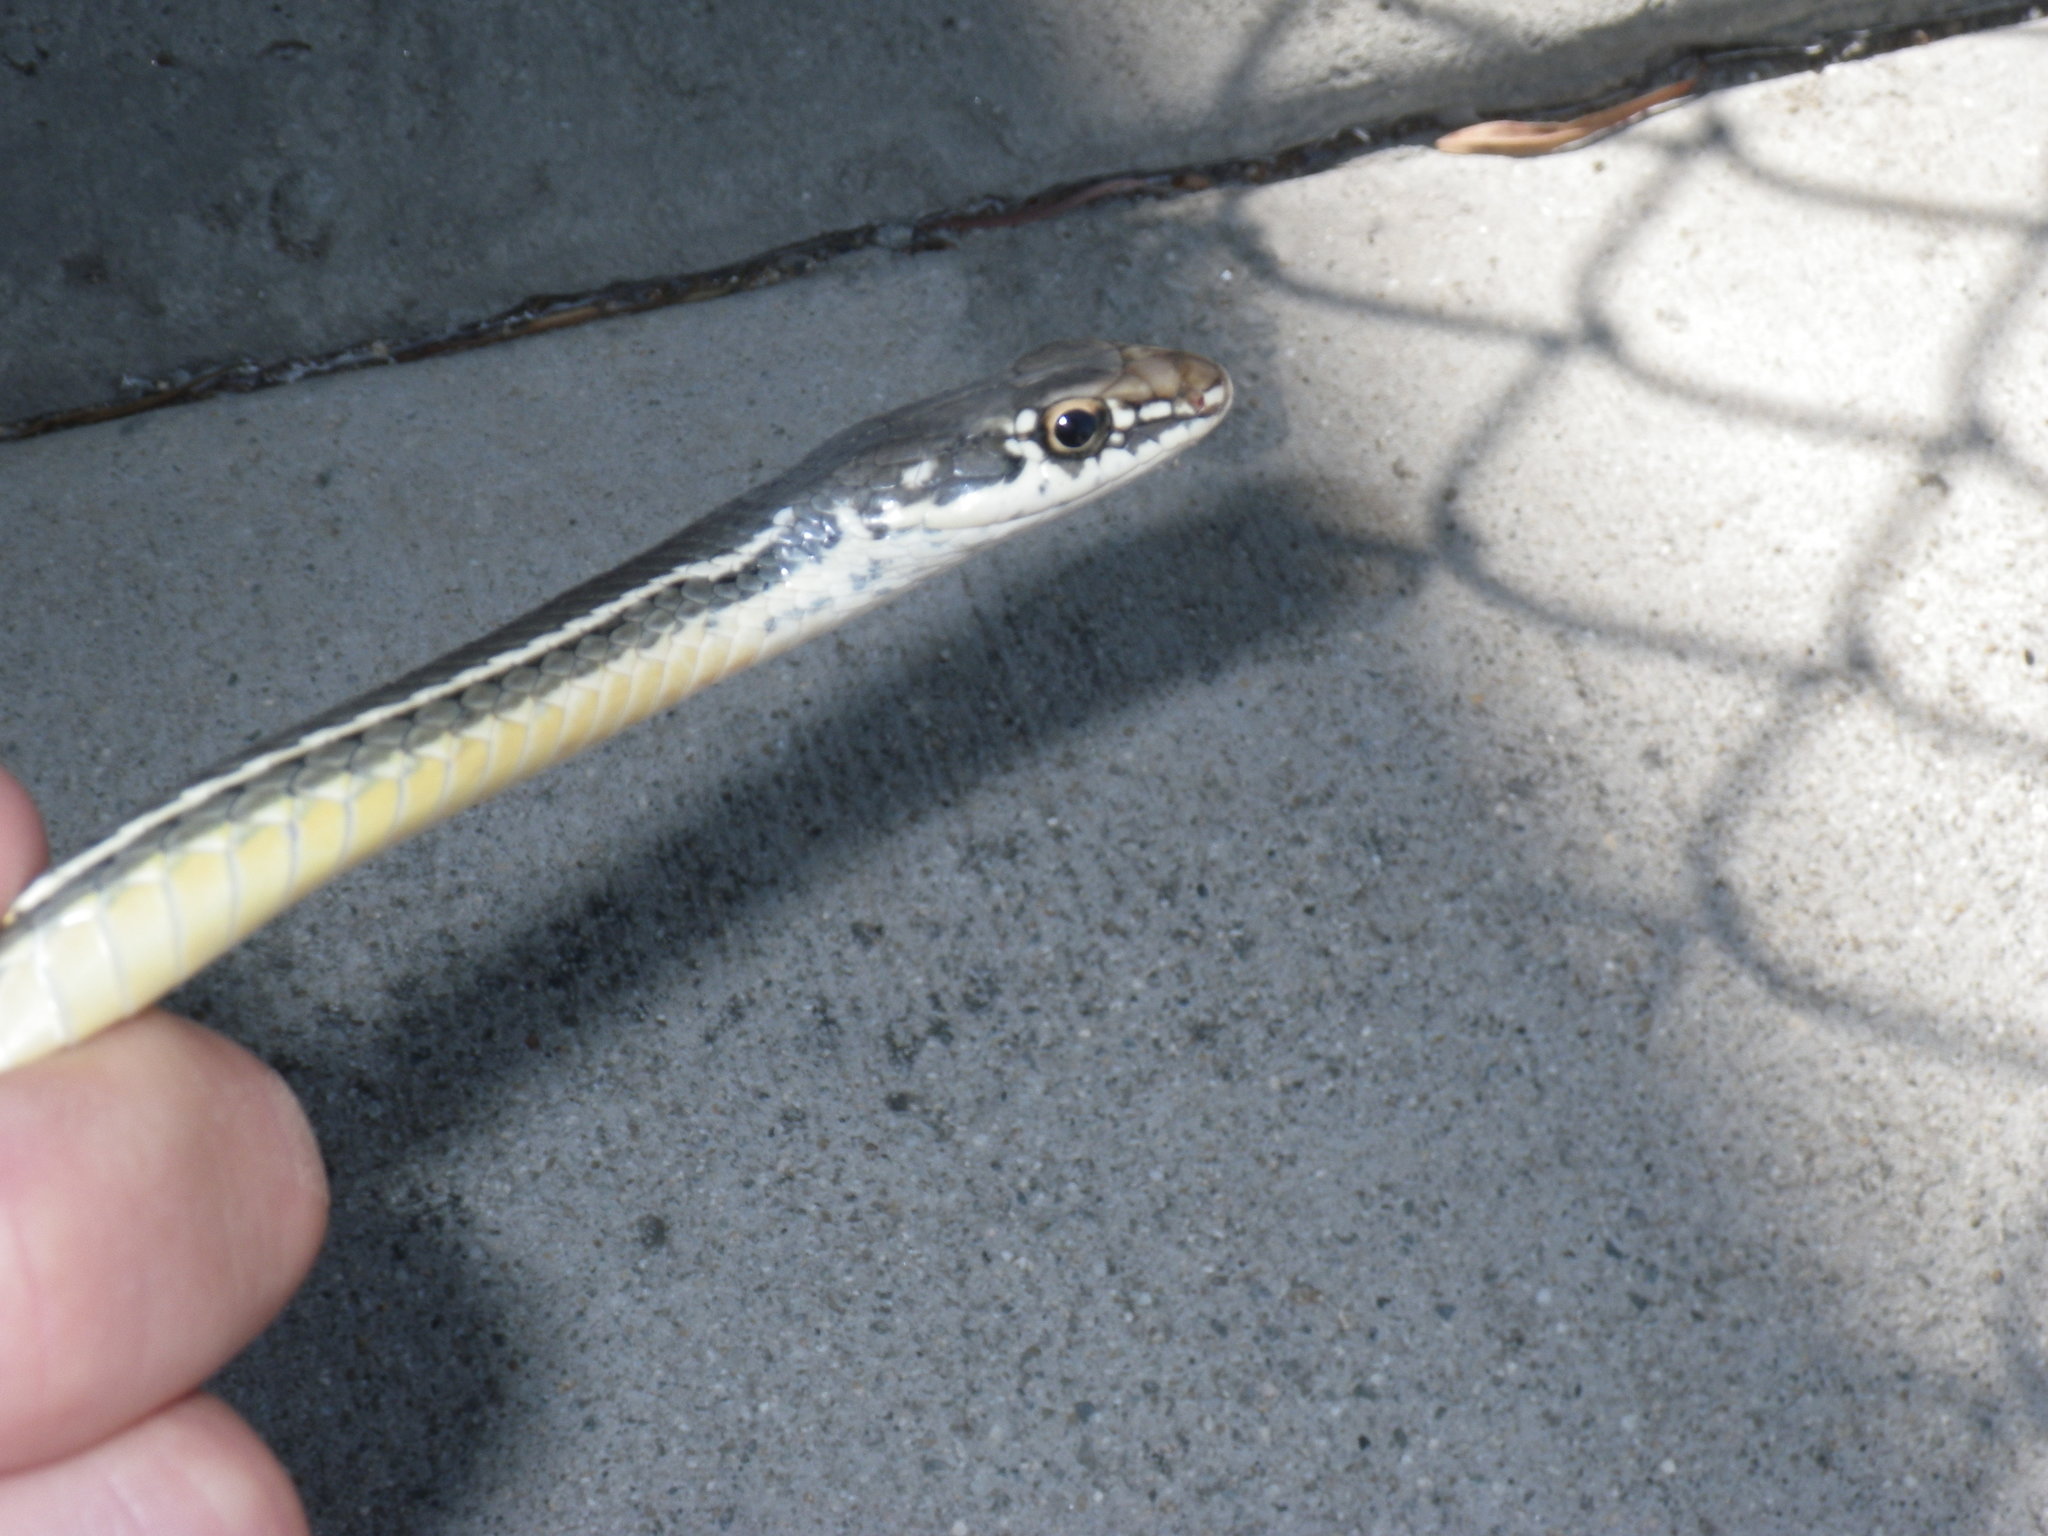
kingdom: Animalia
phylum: Chordata
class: Squamata
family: Colubridae
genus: Masticophis
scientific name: Masticophis lateralis
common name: Striped racer
